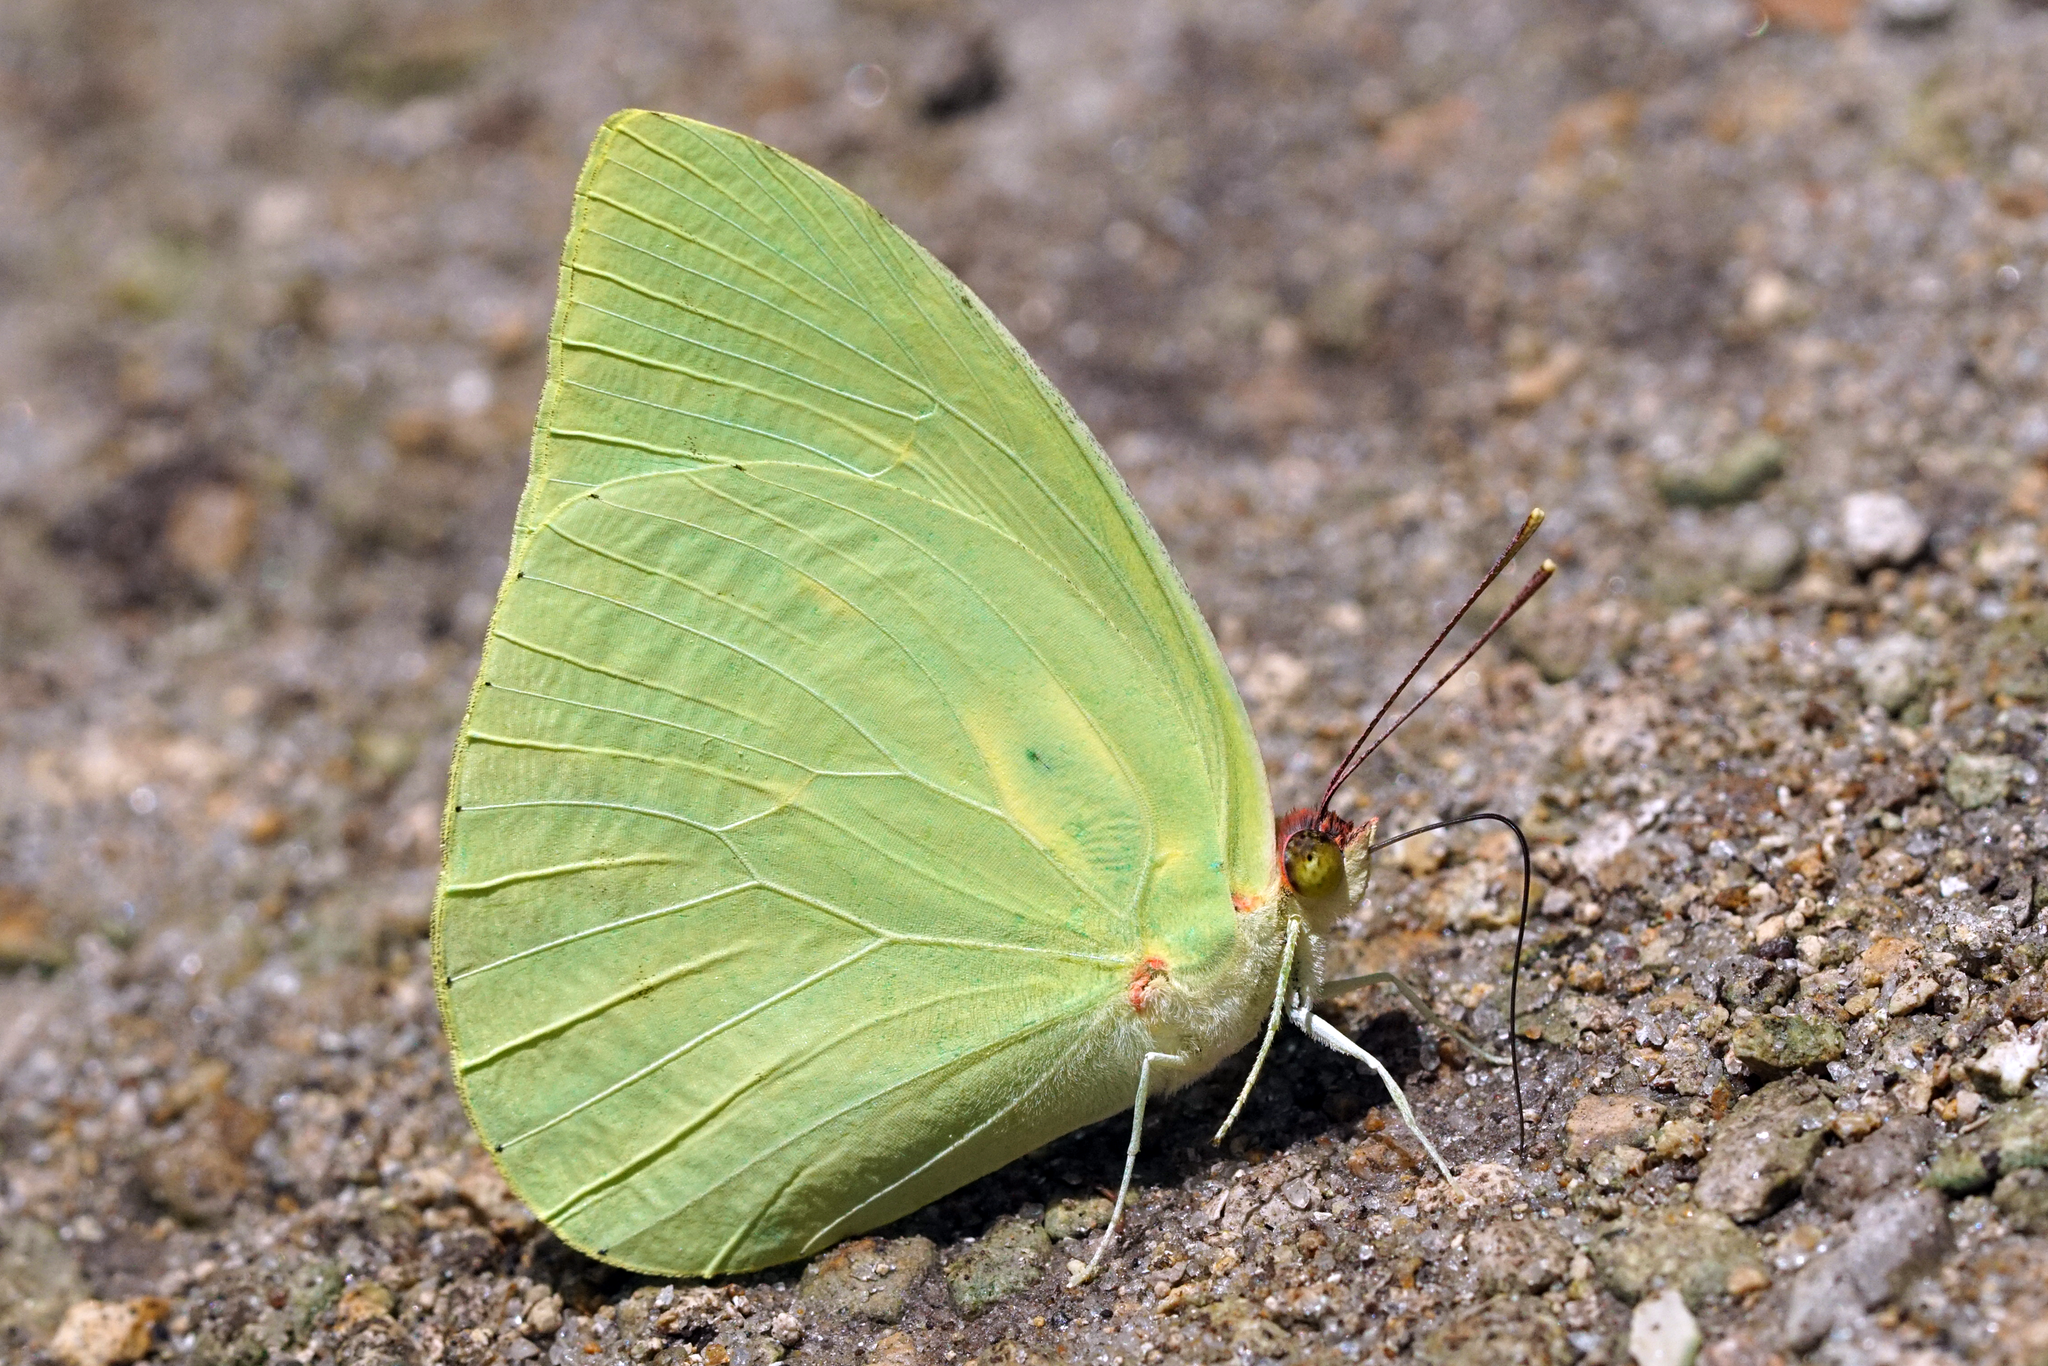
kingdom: Animalia
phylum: Arthropoda
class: Insecta
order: Lepidoptera
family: Pieridae
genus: Aphrissa
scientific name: Aphrissa statira
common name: Statira sulphur
